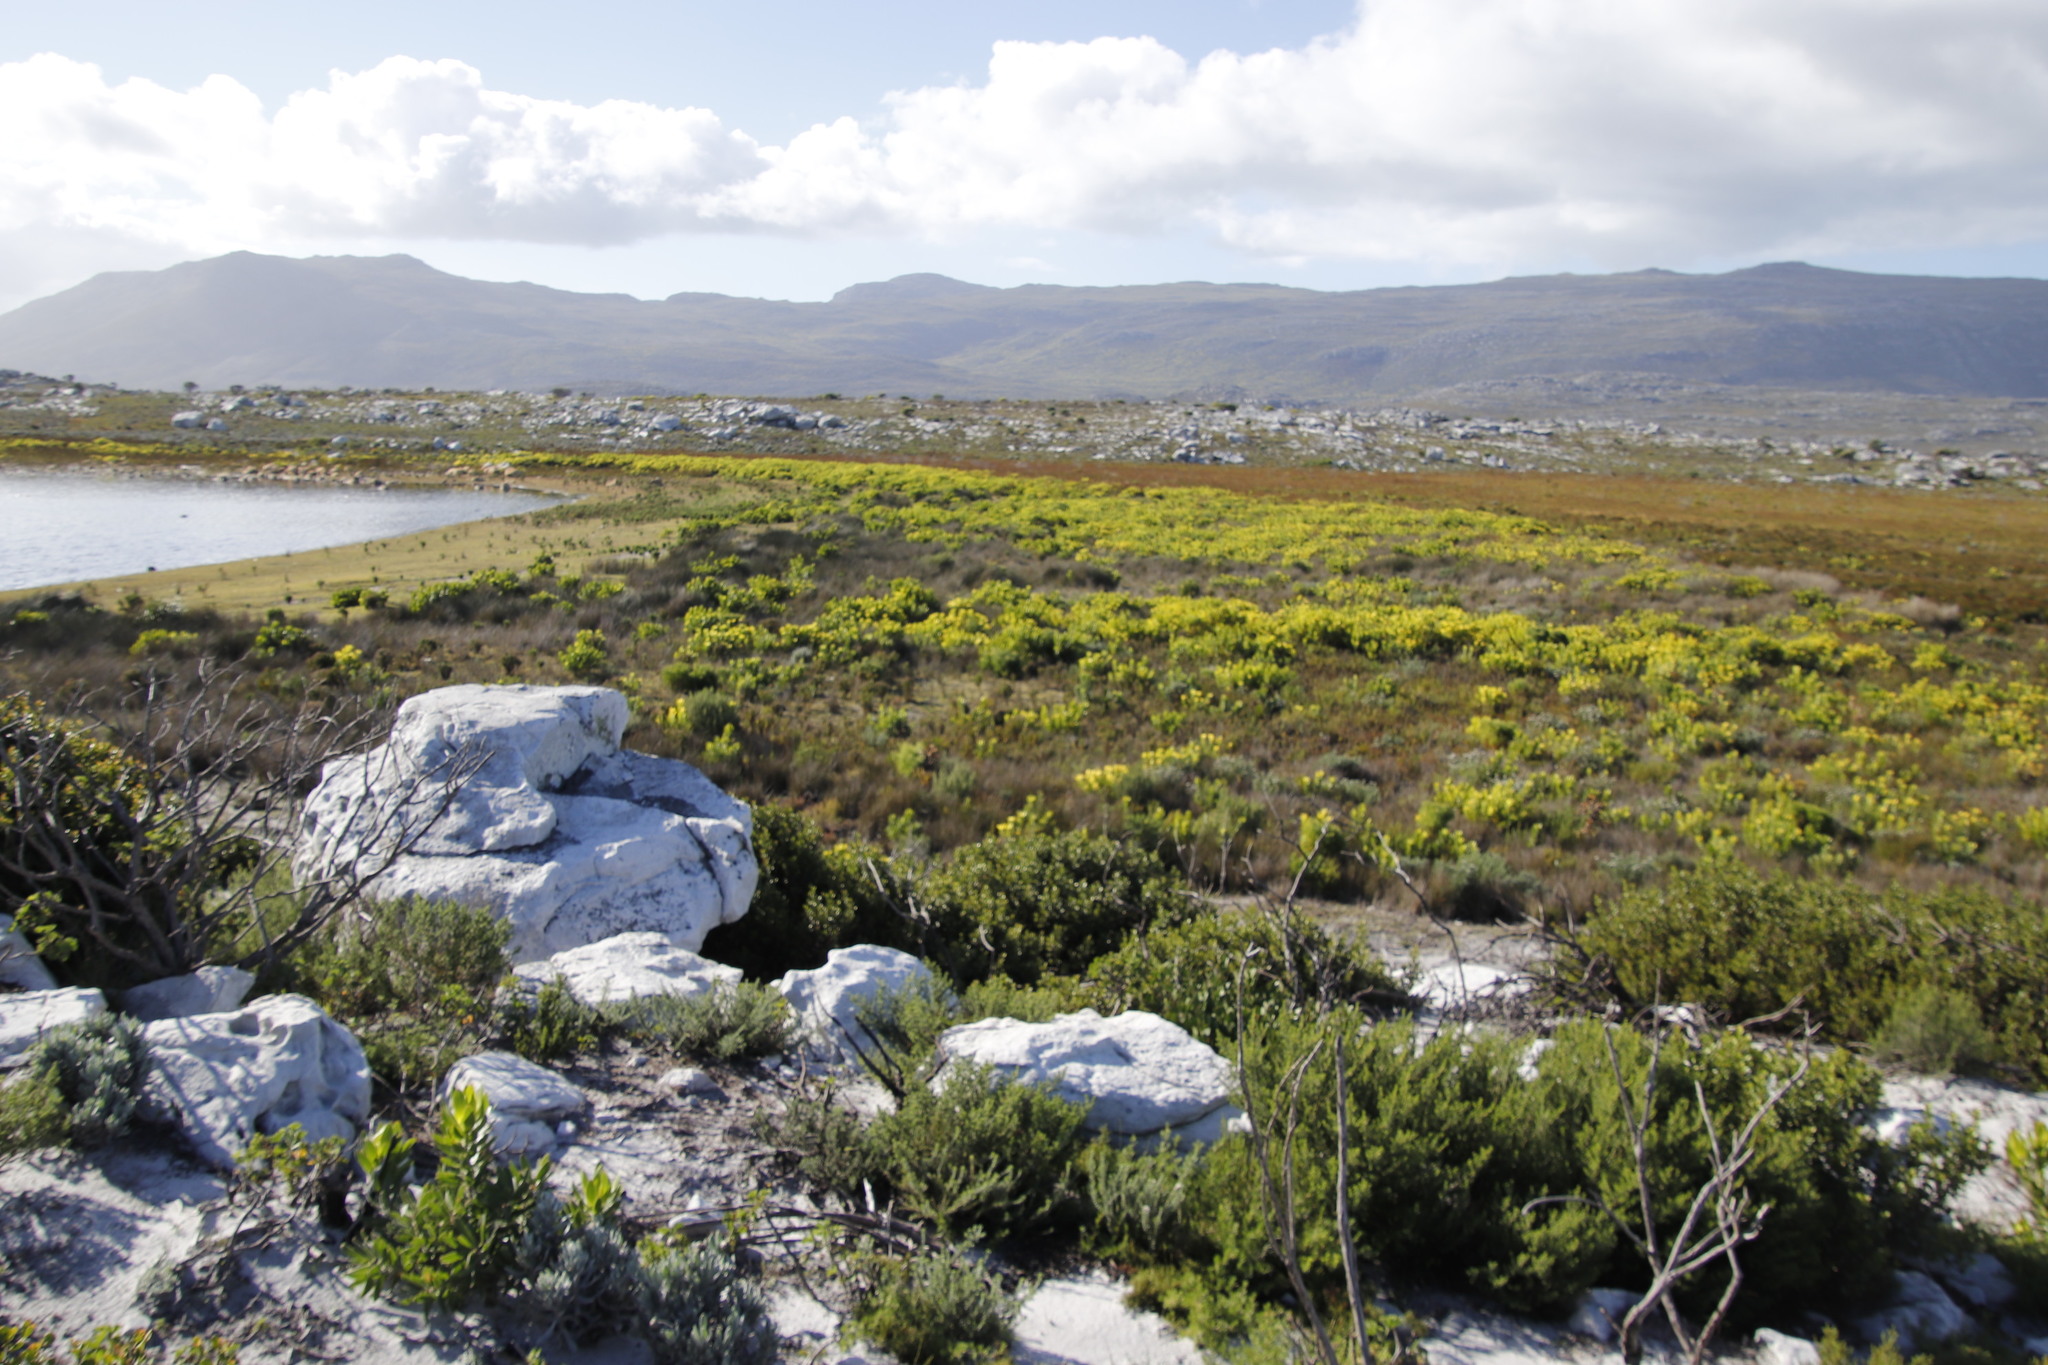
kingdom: Plantae
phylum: Tracheophyta
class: Magnoliopsida
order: Proteales
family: Proteaceae
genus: Leucadendron
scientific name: Leucadendron laureolum
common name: Golden sunshinebush
